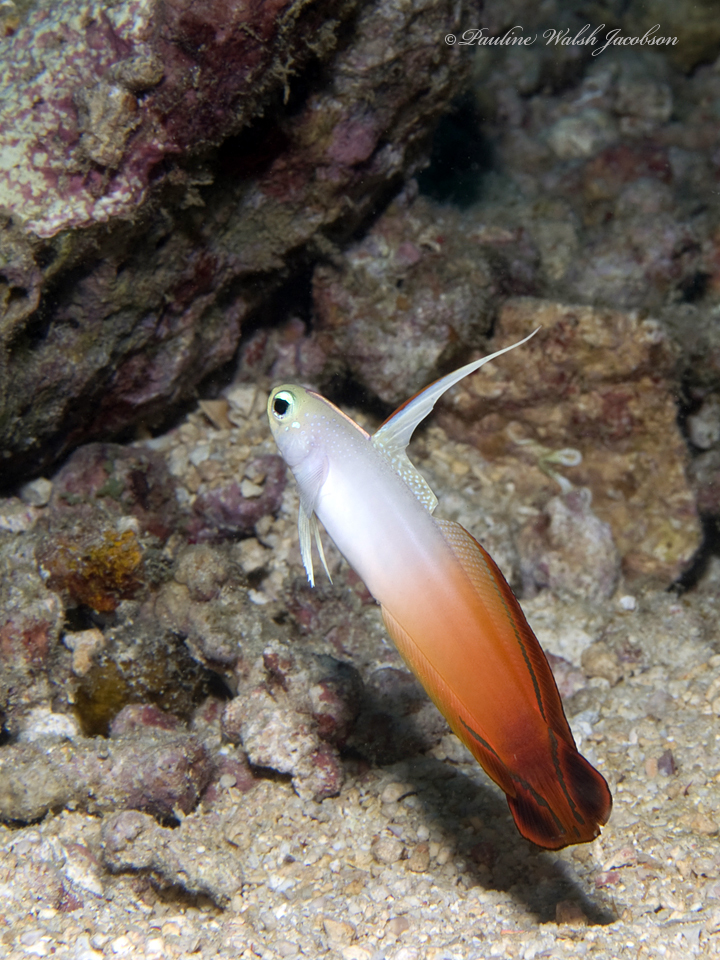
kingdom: Animalia
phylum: Chordata
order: Perciformes
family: Microdesmidae
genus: Nemateleotris
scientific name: Nemateleotris magnifica
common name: Fire goby
